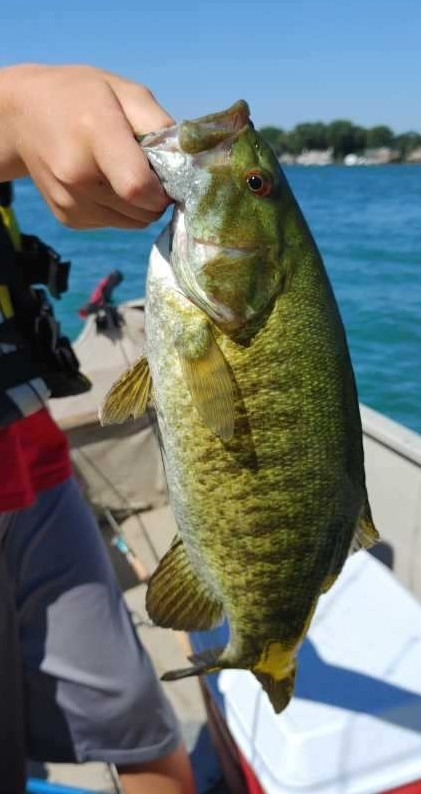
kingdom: Animalia
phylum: Chordata
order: Perciformes
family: Centrarchidae
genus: Micropterus
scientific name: Micropterus dolomieu
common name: Smallmouth bass
